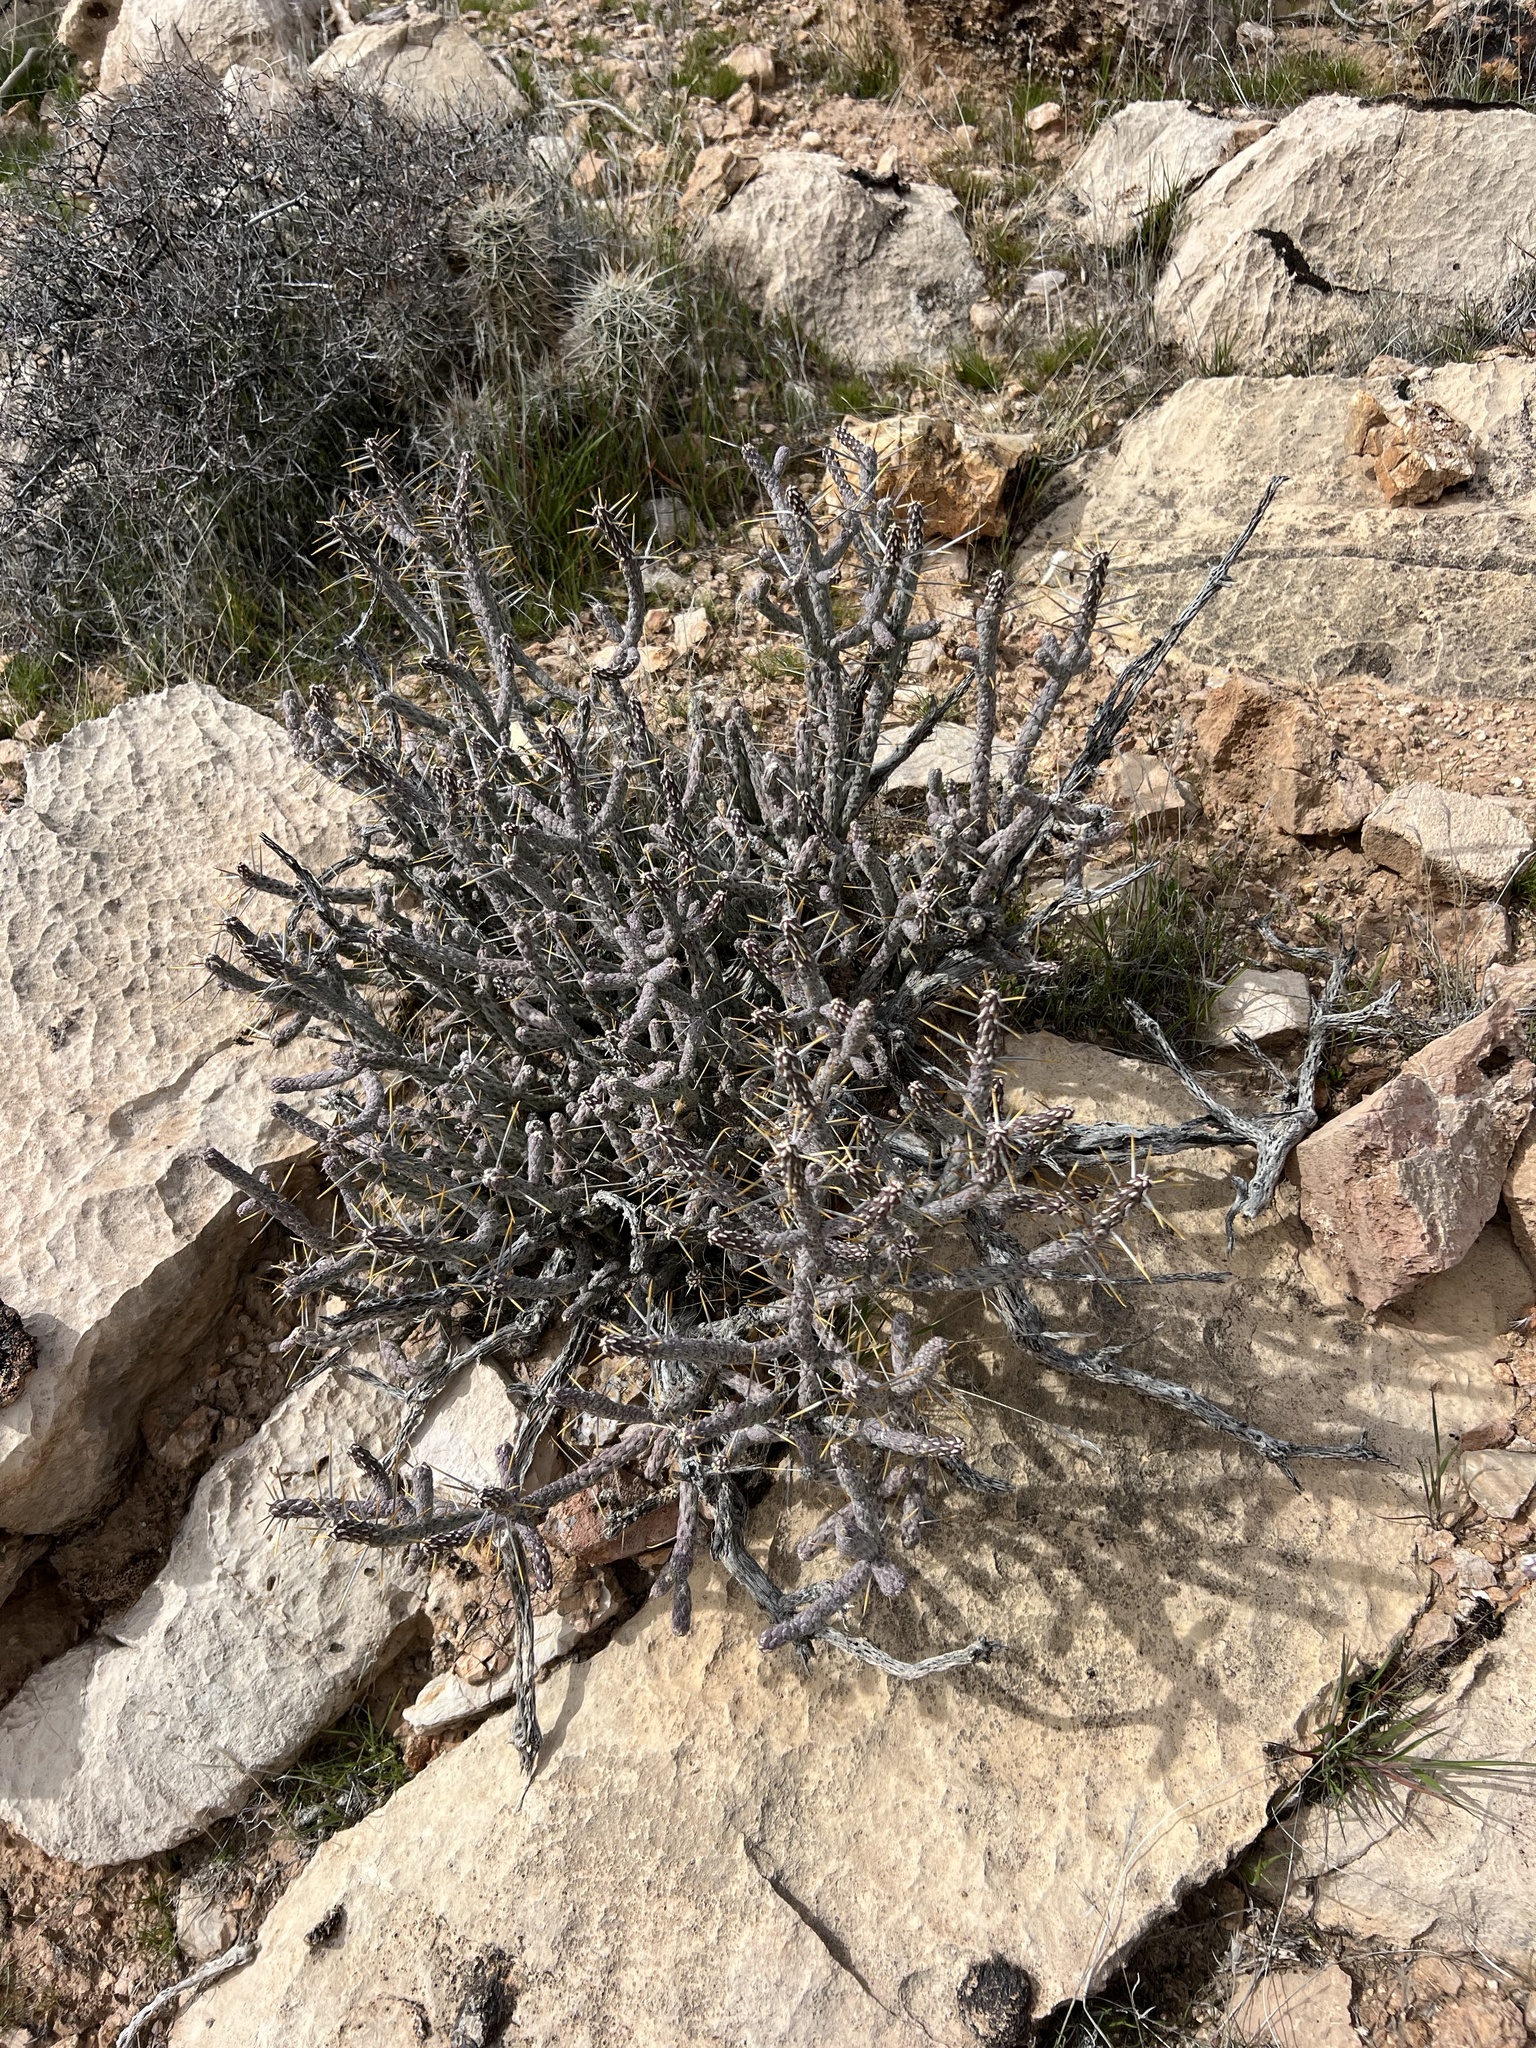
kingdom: Plantae
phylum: Tracheophyta
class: Magnoliopsida
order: Caryophyllales
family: Cactaceae
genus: Cylindropuntia
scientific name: Cylindropuntia ramosissima
